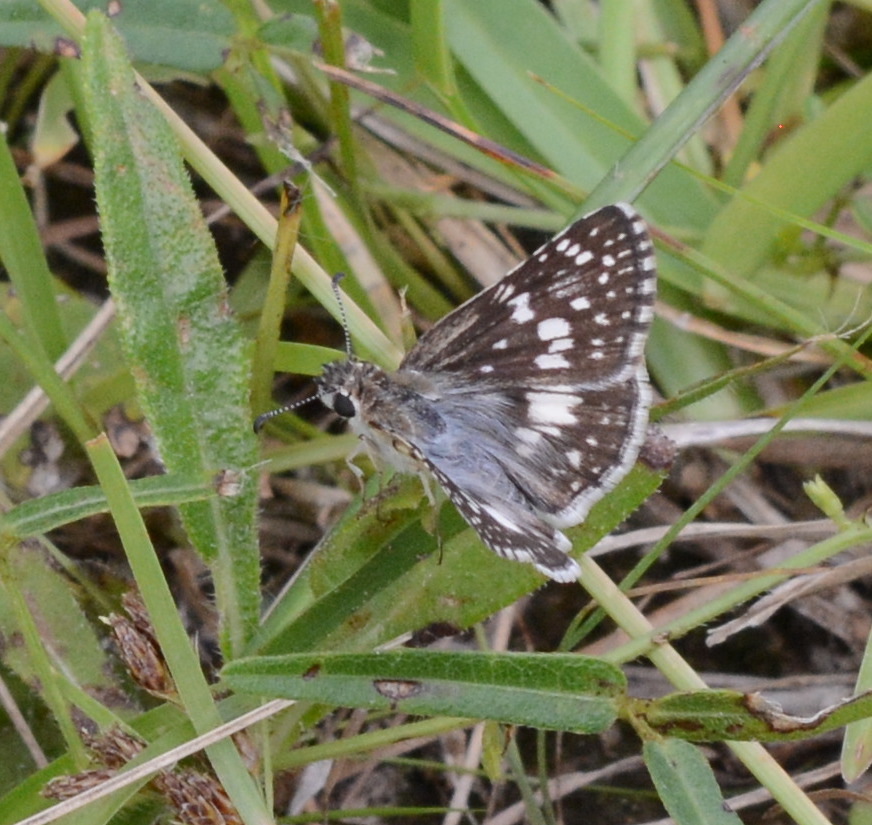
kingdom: Animalia
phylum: Arthropoda
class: Insecta
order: Lepidoptera
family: Hesperiidae
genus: Burnsius
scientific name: Burnsius
